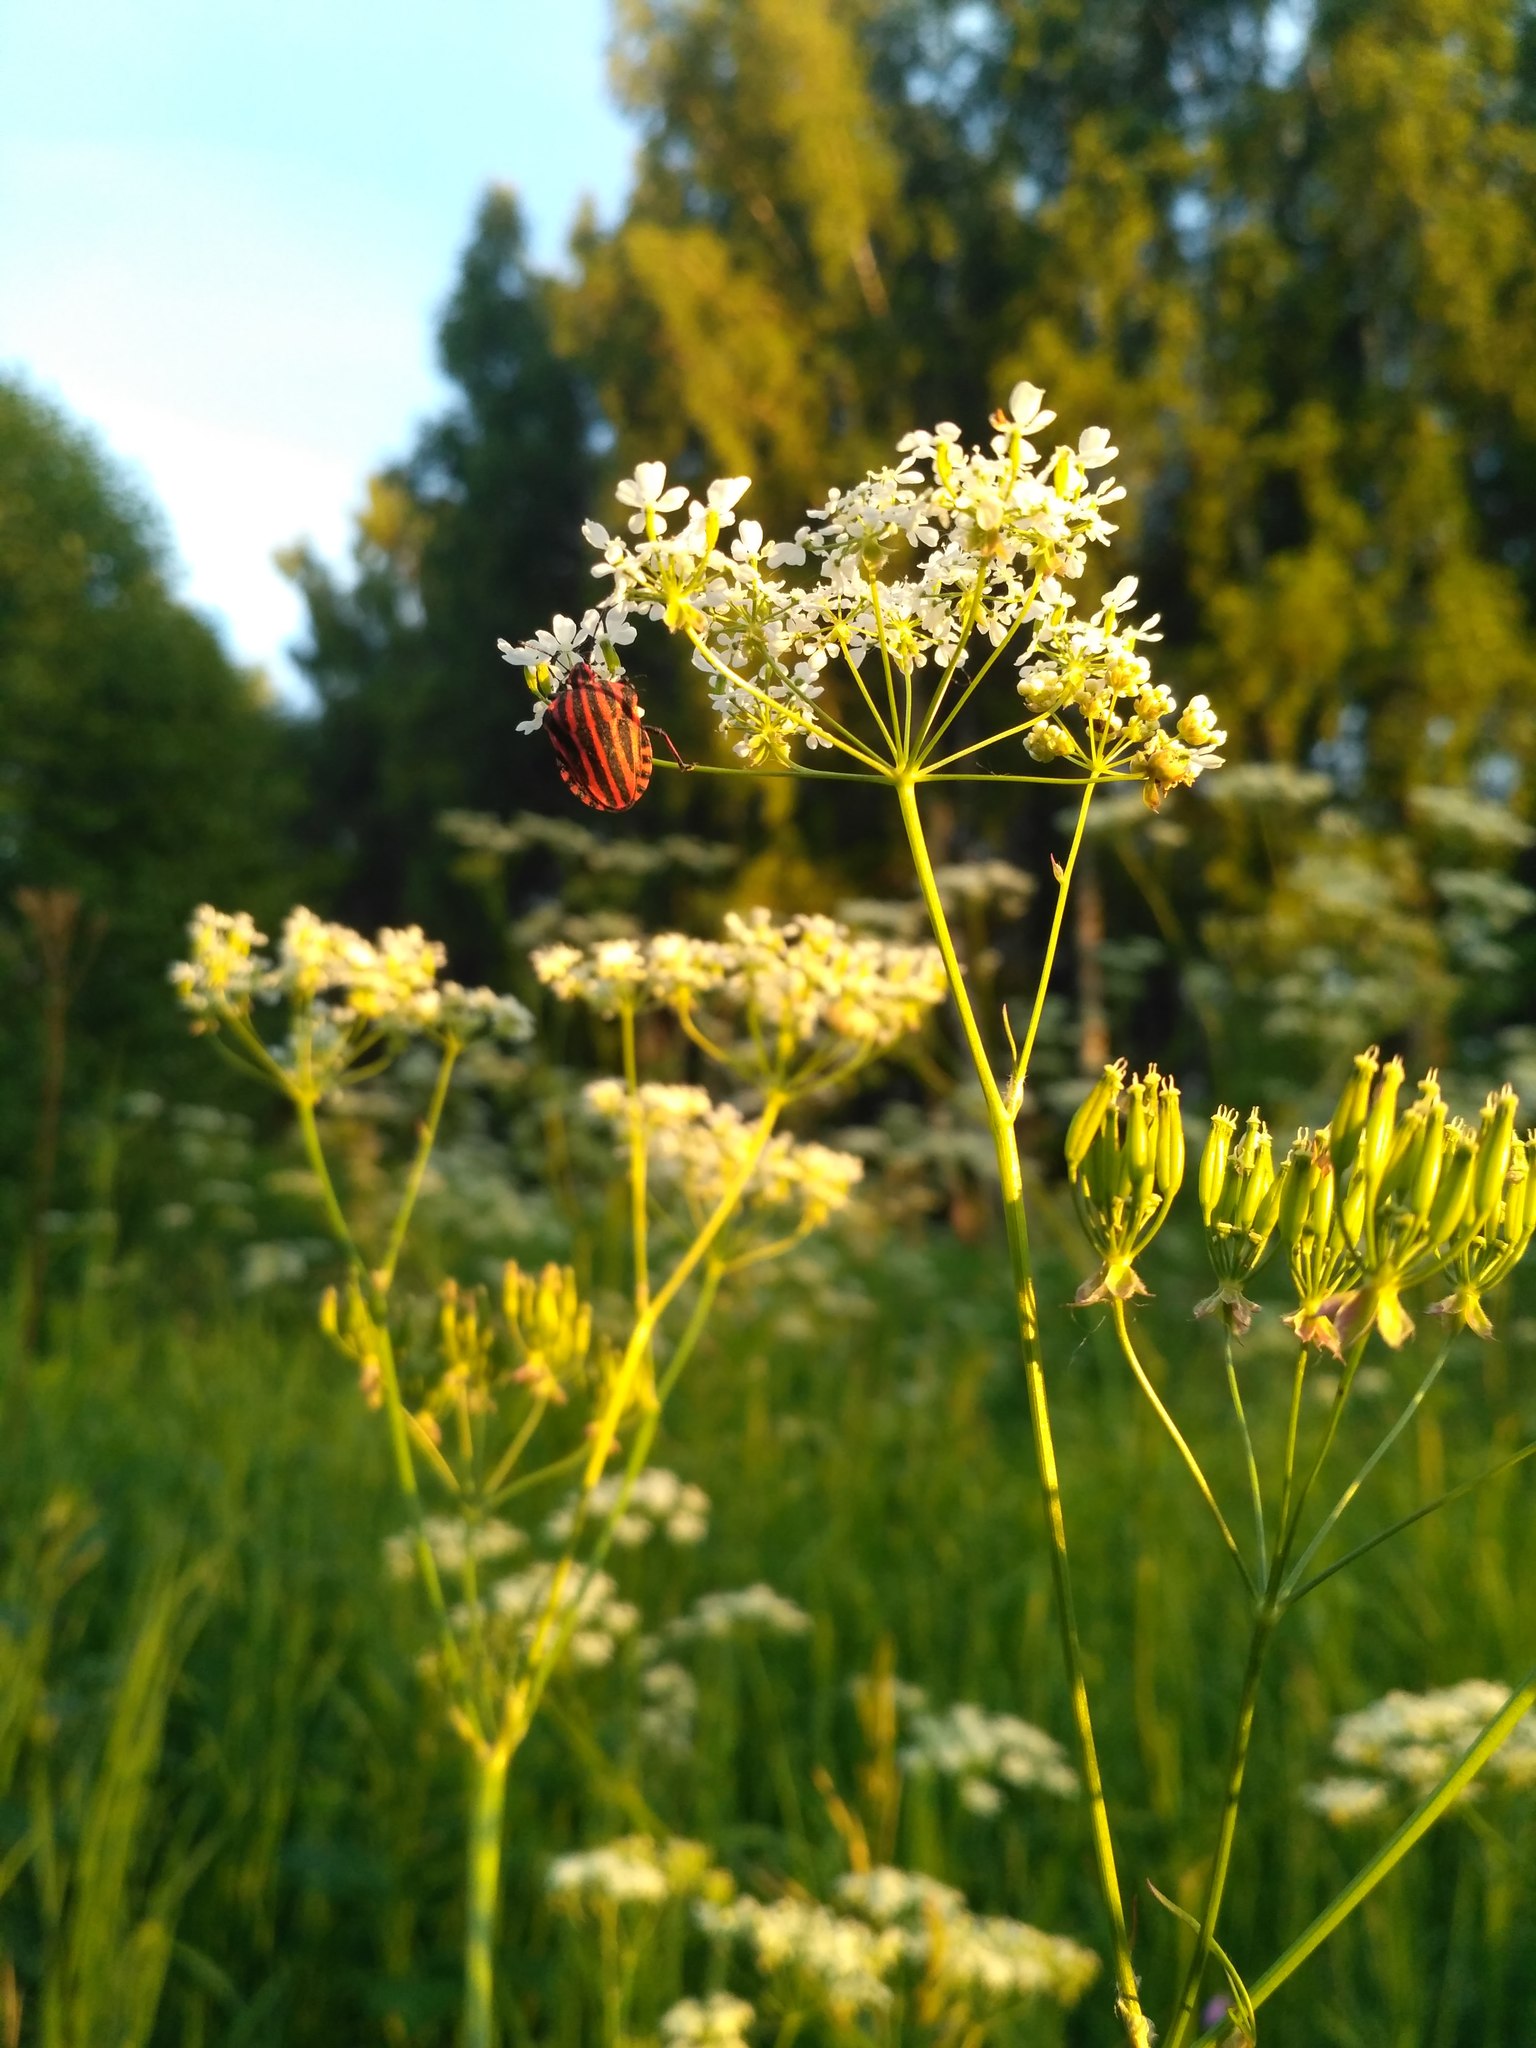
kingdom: Animalia
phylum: Arthropoda
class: Insecta
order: Hemiptera
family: Pentatomidae
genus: Graphosoma
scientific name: Graphosoma italicum
